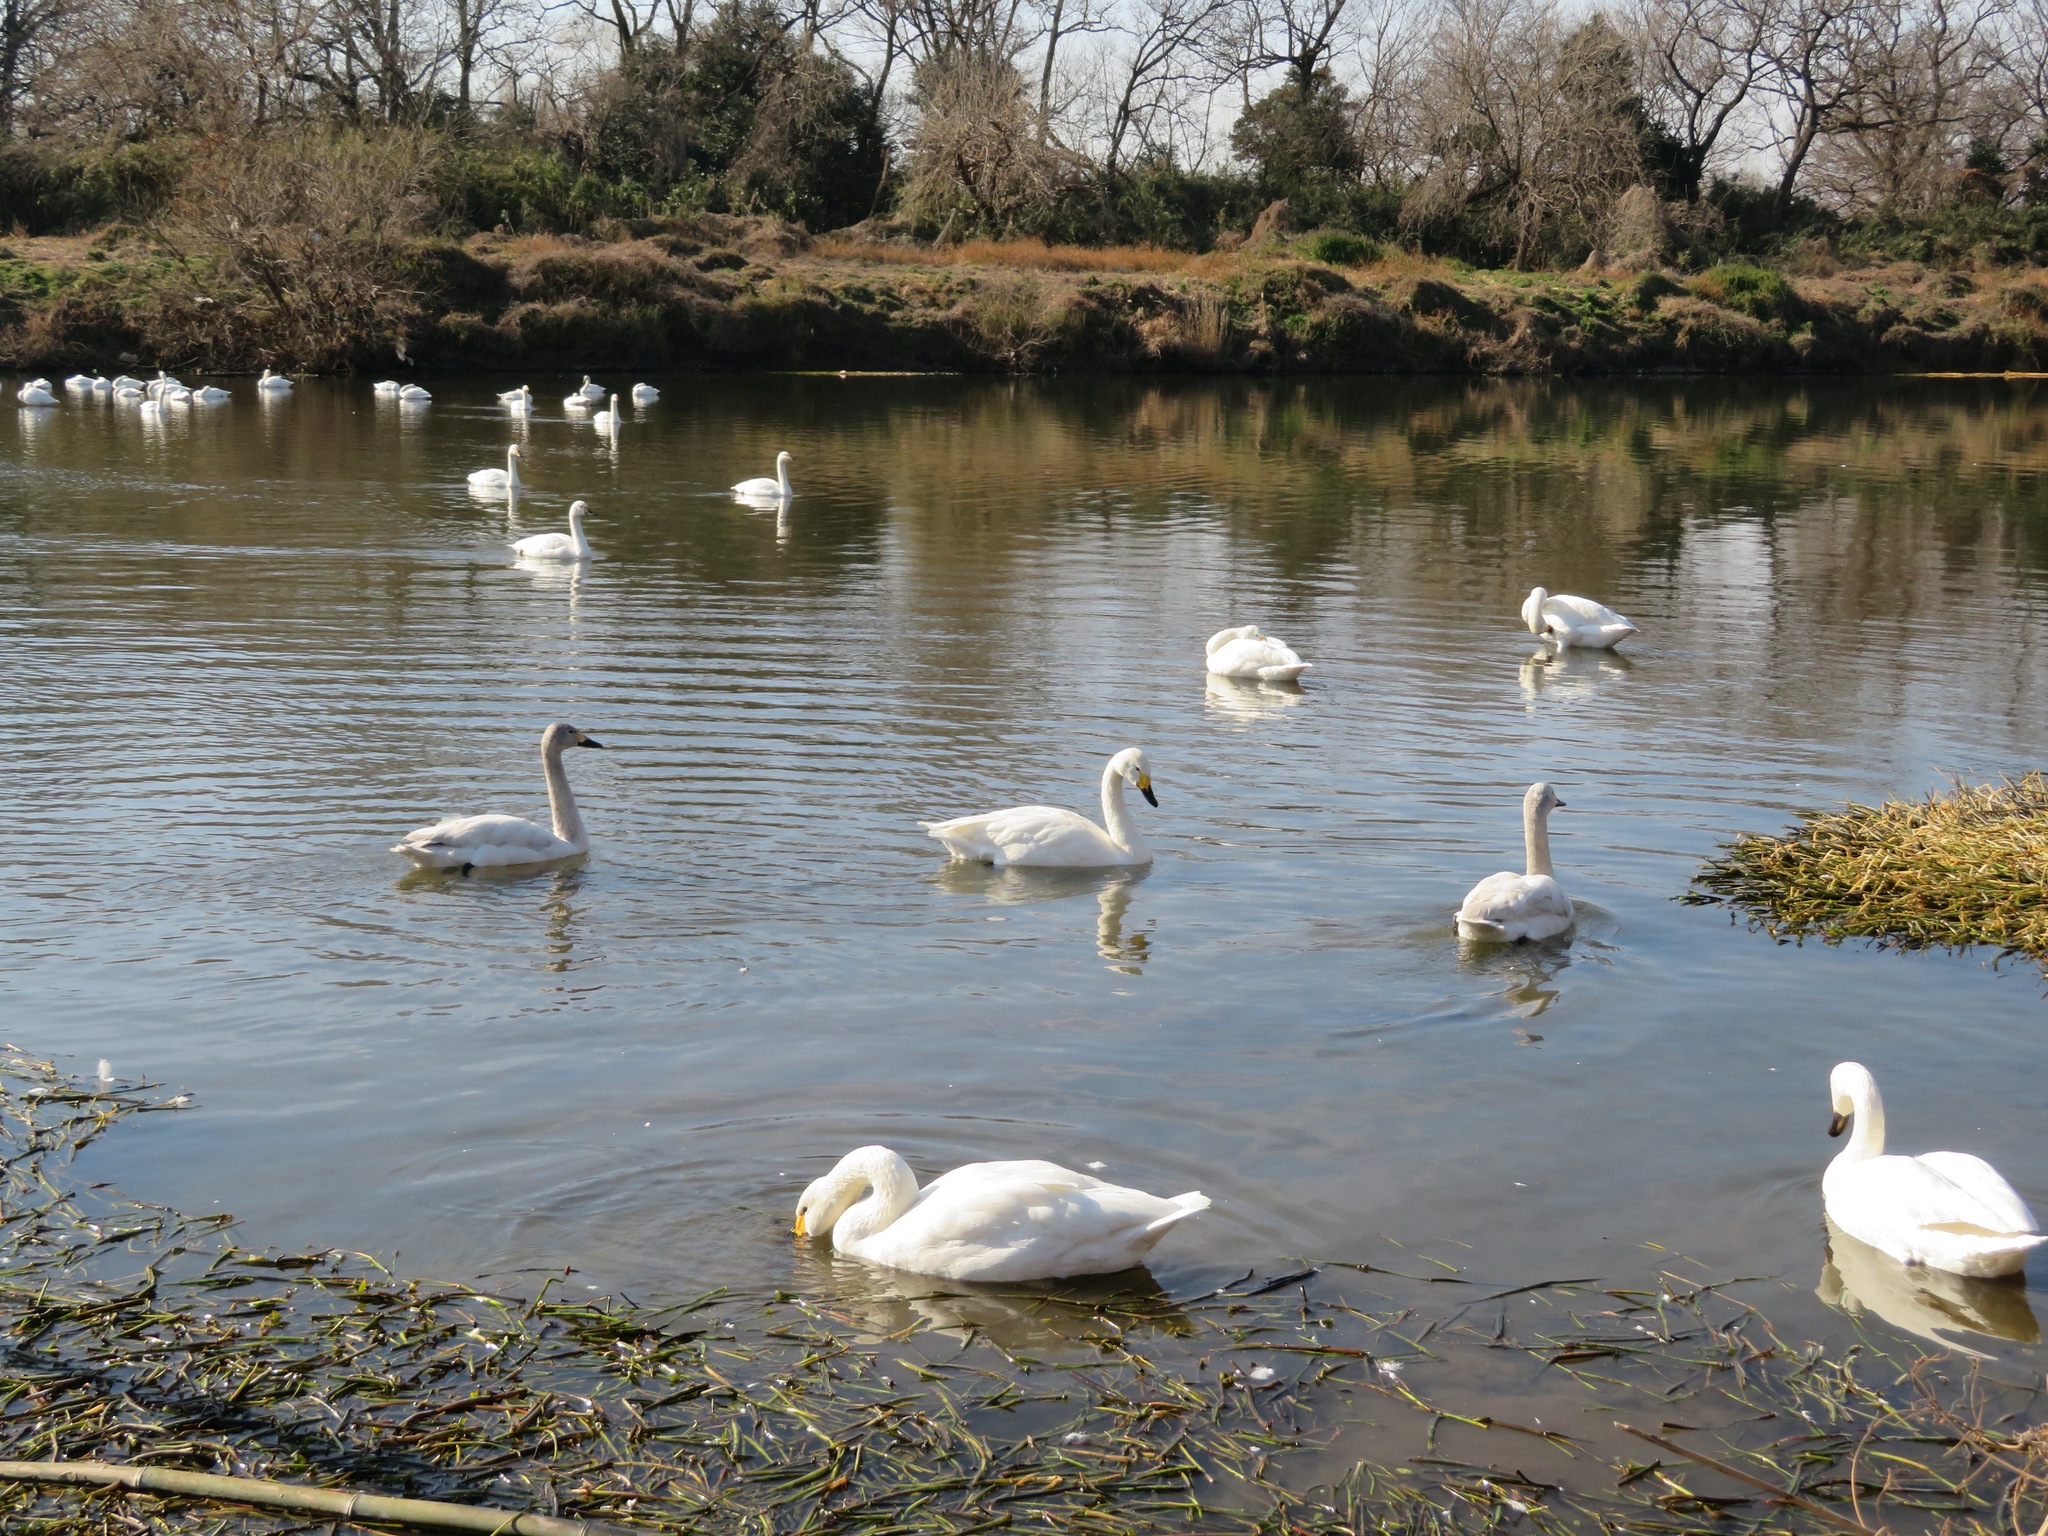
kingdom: Animalia
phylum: Chordata
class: Aves
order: Anseriformes
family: Anatidae
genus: Cygnus
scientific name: Cygnus columbianus
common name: Tundra swan
